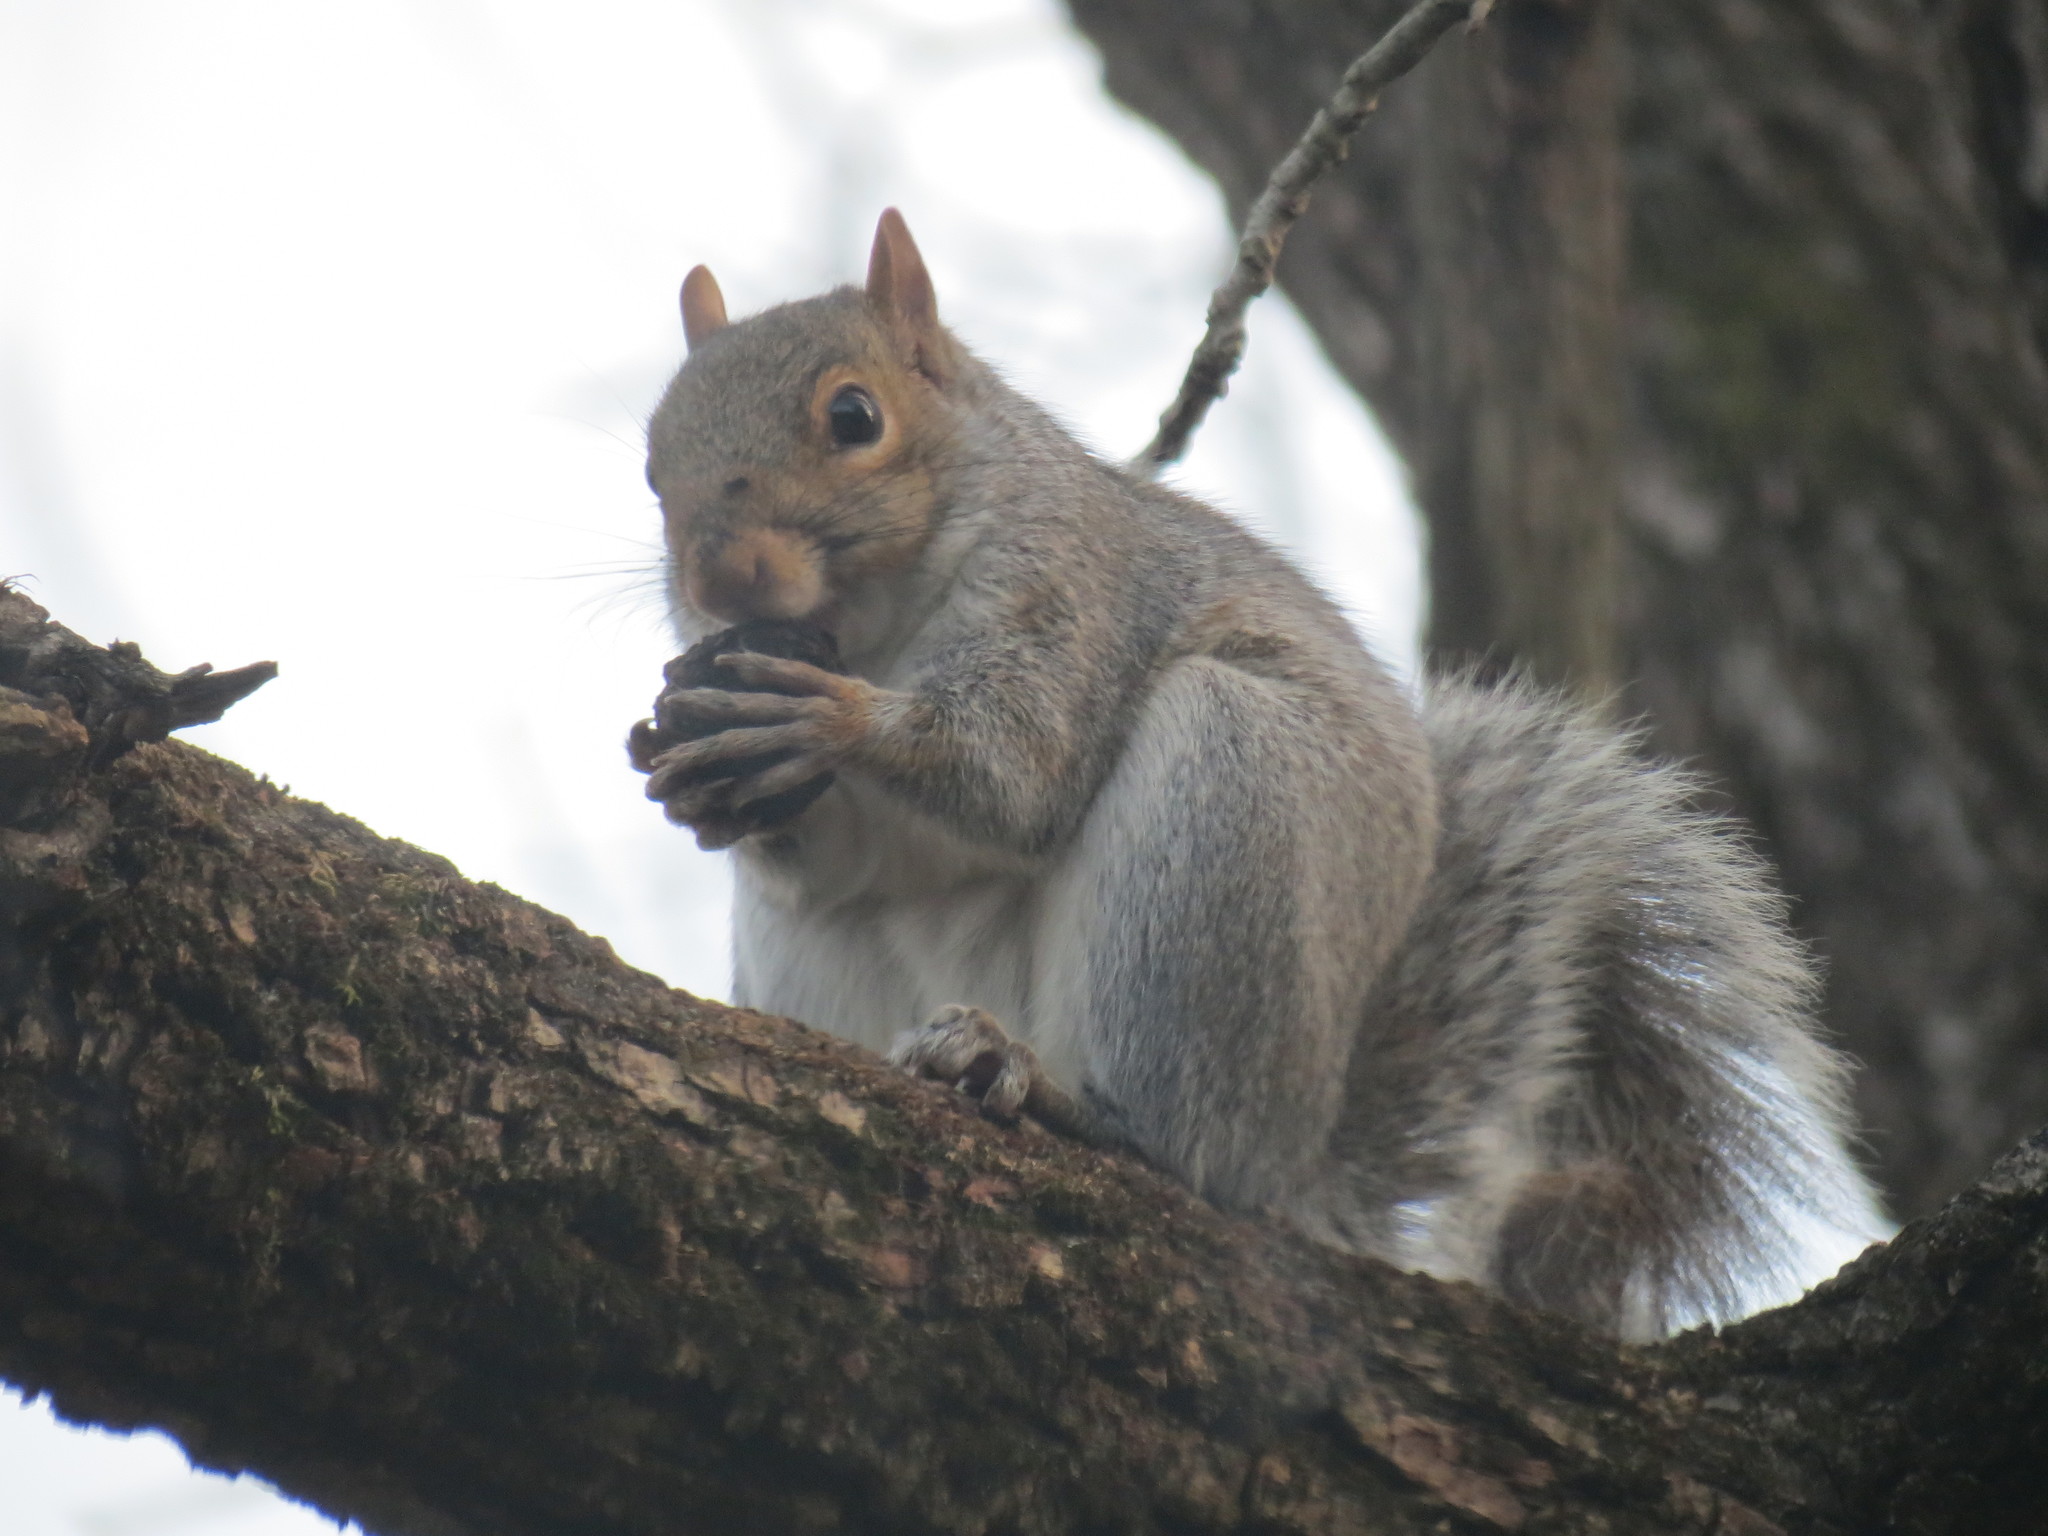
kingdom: Animalia
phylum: Chordata
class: Mammalia
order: Rodentia
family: Sciuridae
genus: Sciurus
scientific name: Sciurus carolinensis
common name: Eastern gray squirrel
